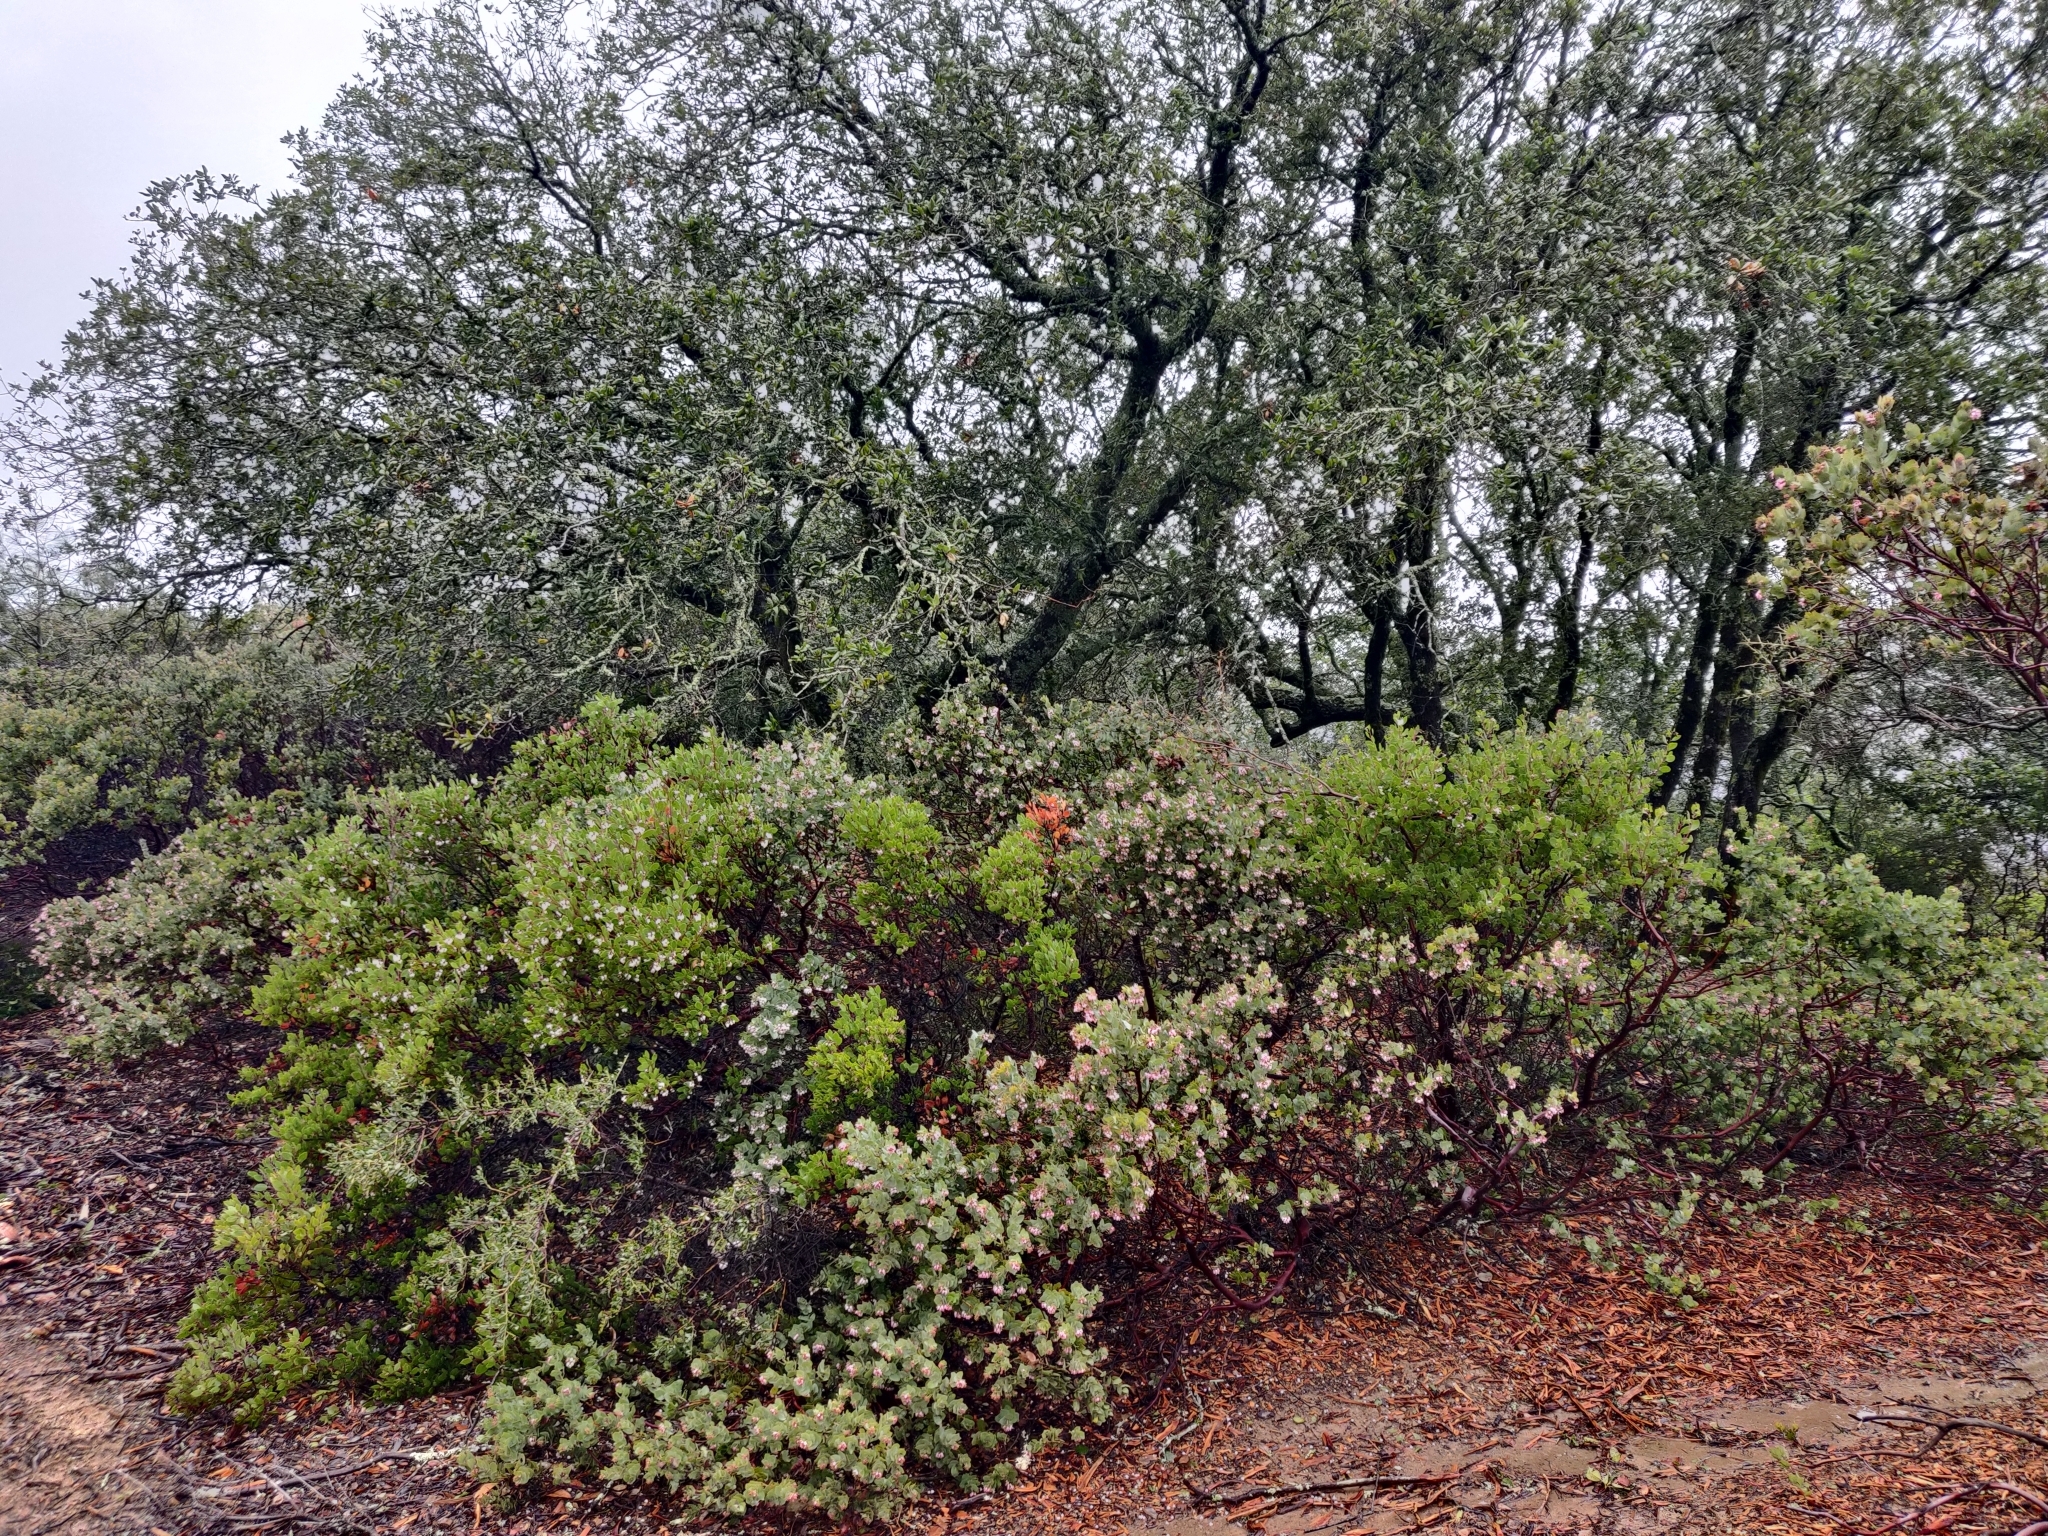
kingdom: Plantae
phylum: Tracheophyta
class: Magnoliopsida
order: Ericales
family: Ericaceae
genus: Arctostaphylos
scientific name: Arctostaphylos manzanita
